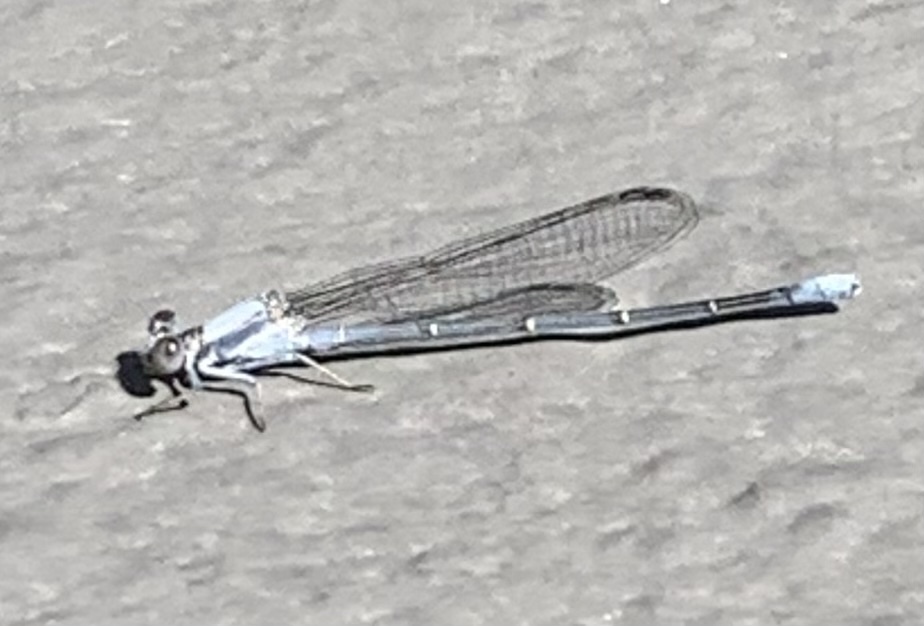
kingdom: Animalia
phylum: Arthropoda
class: Insecta
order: Odonata
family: Coenagrionidae
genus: Argia
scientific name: Argia moesta
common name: Powdered dancer
